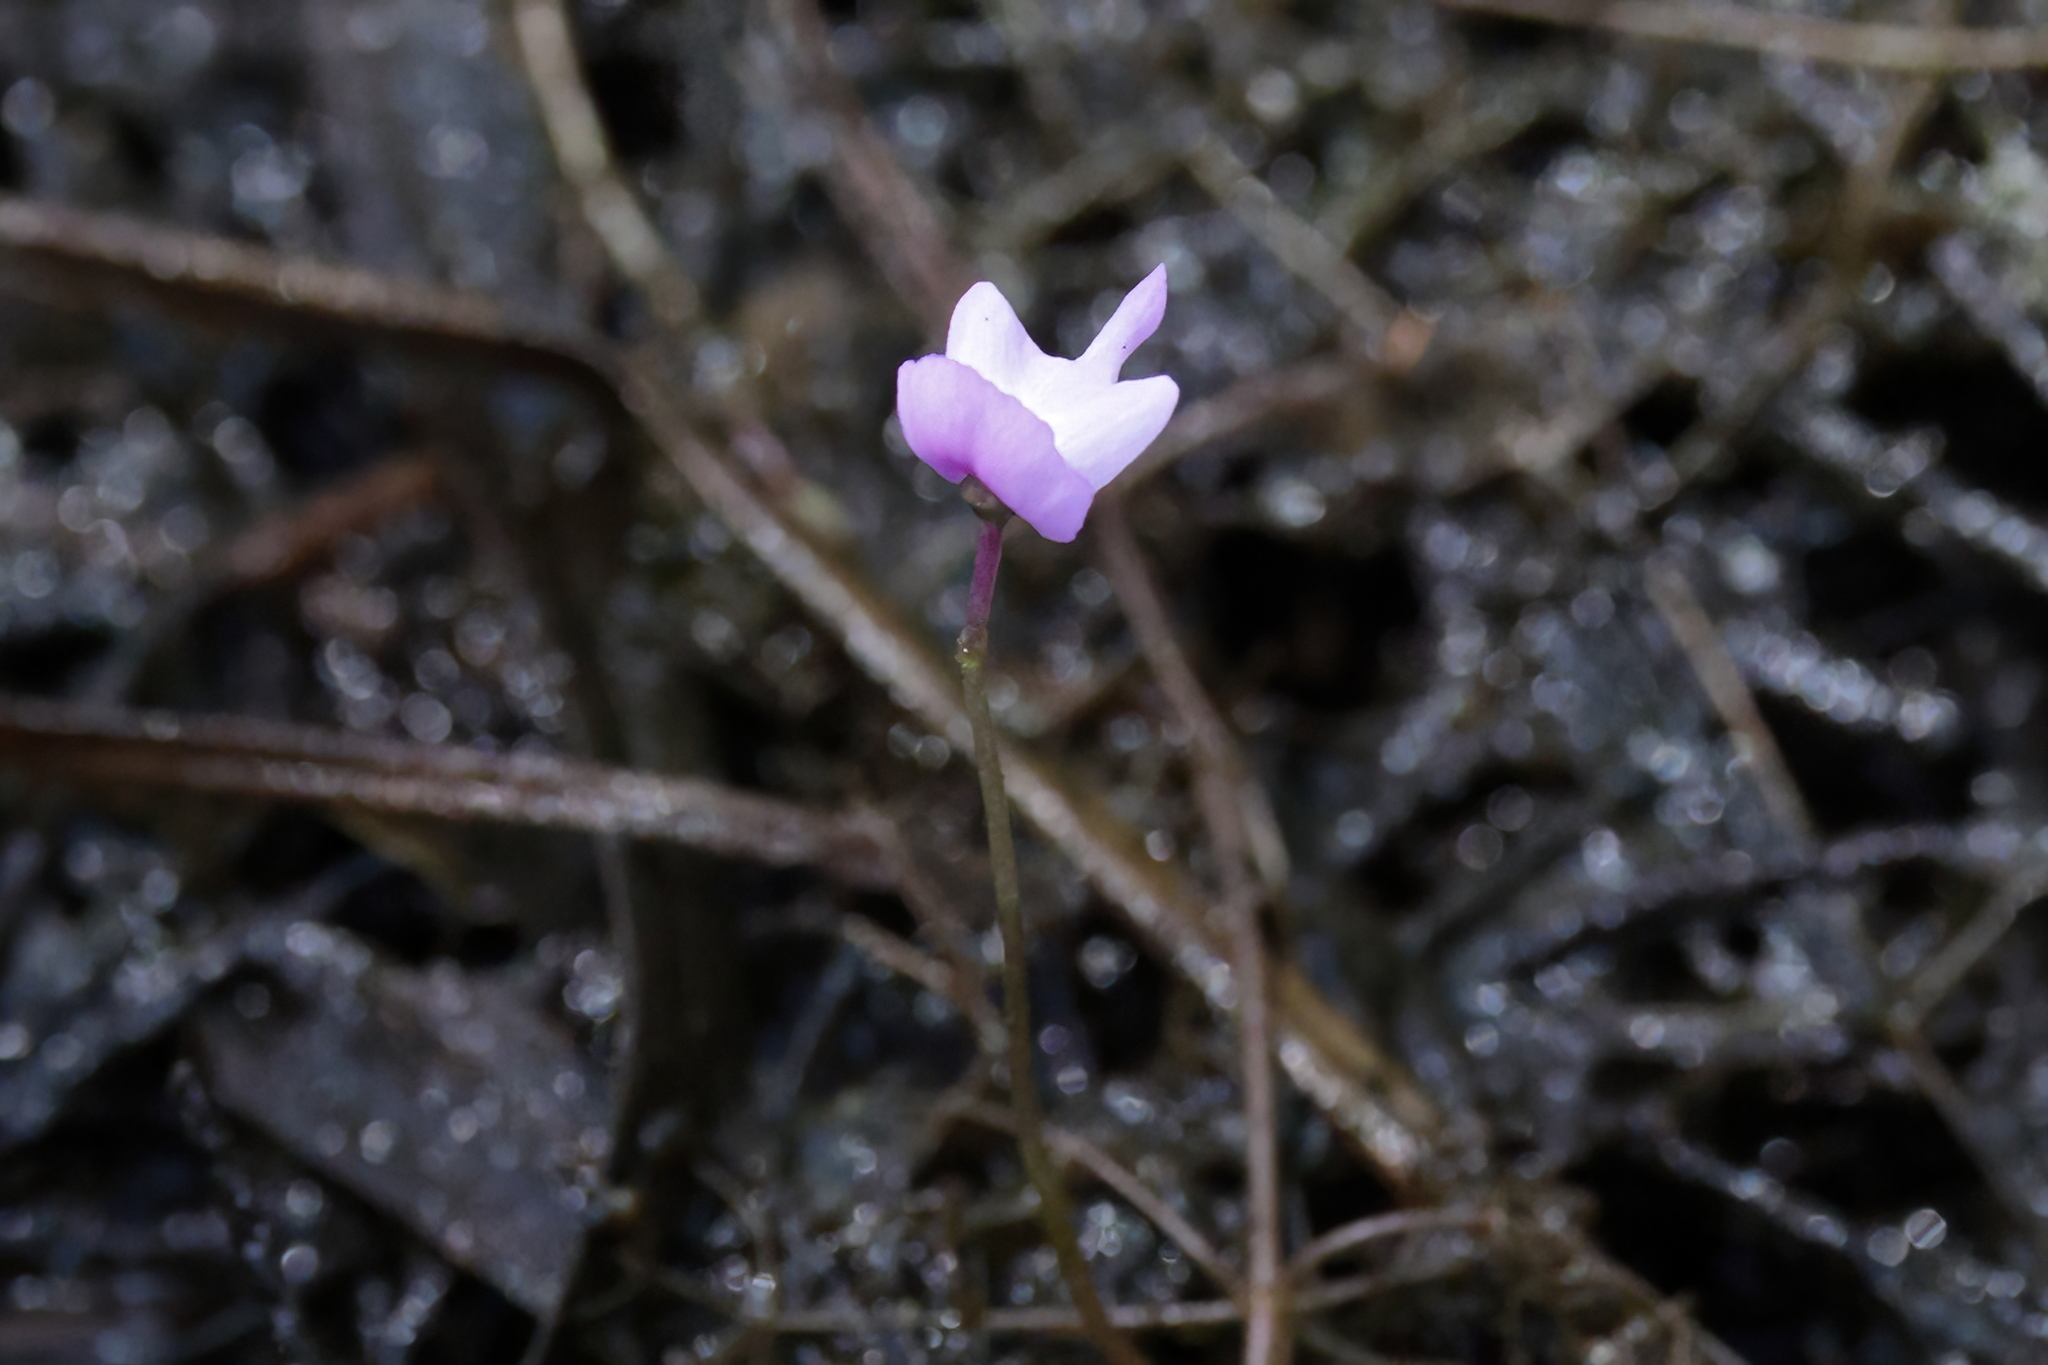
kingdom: Plantae
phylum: Tracheophyta
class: Magnoliopsida
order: Lamiales
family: Lentibulariaceae
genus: Utricularia
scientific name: Utricularia purpurea
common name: Eastern purple bladderwort
